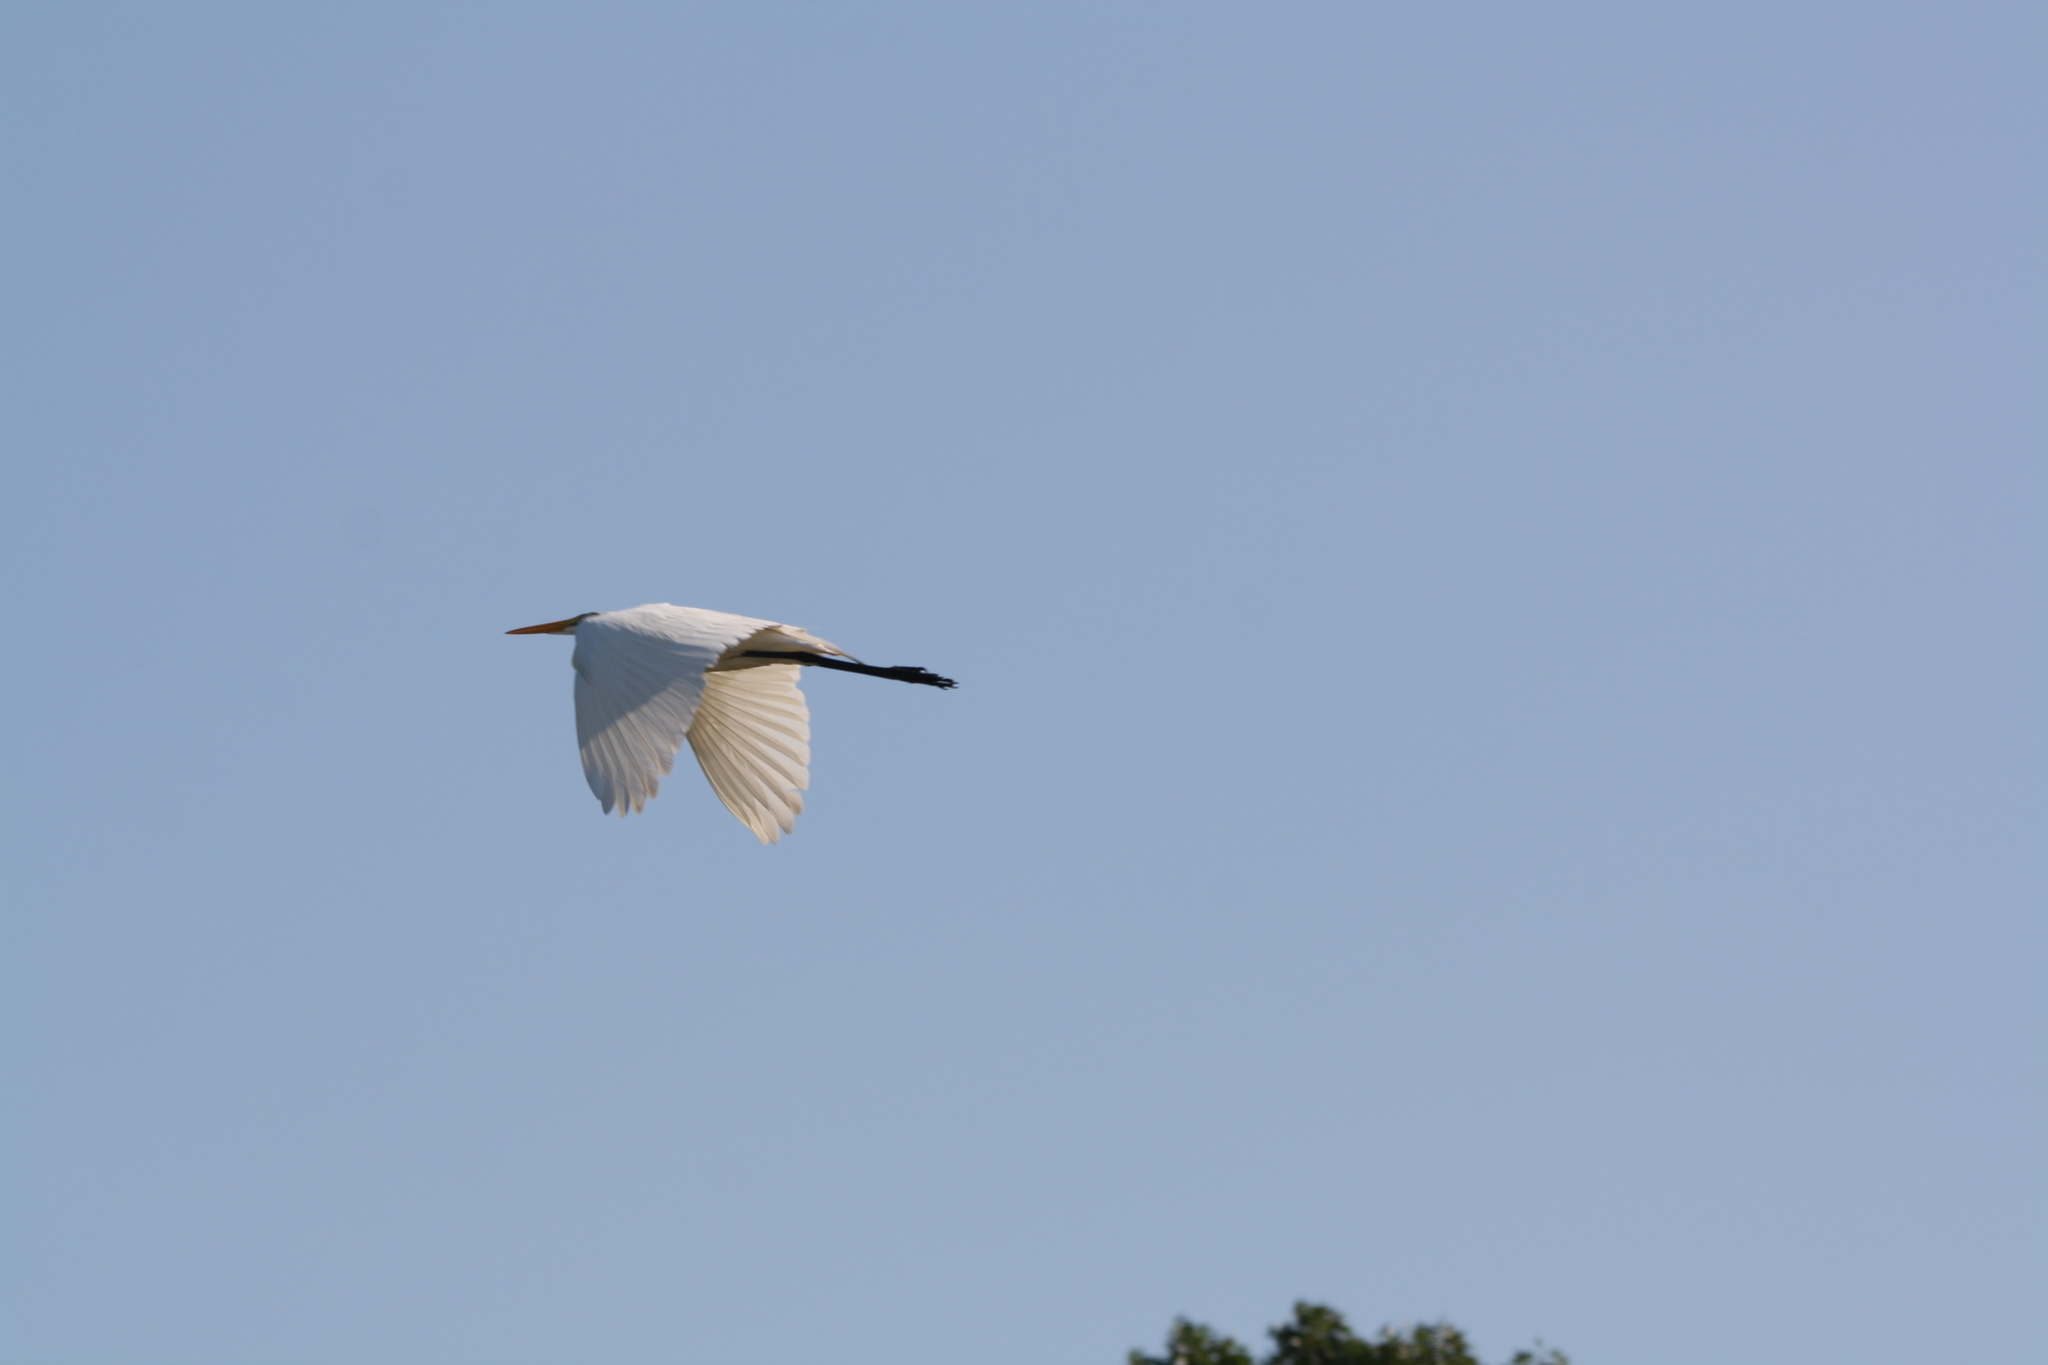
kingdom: Animalia
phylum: Chordata
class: Aves
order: Pelecaniformes
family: Ardeidae
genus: Ardea
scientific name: Ardea alba
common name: Great egret
